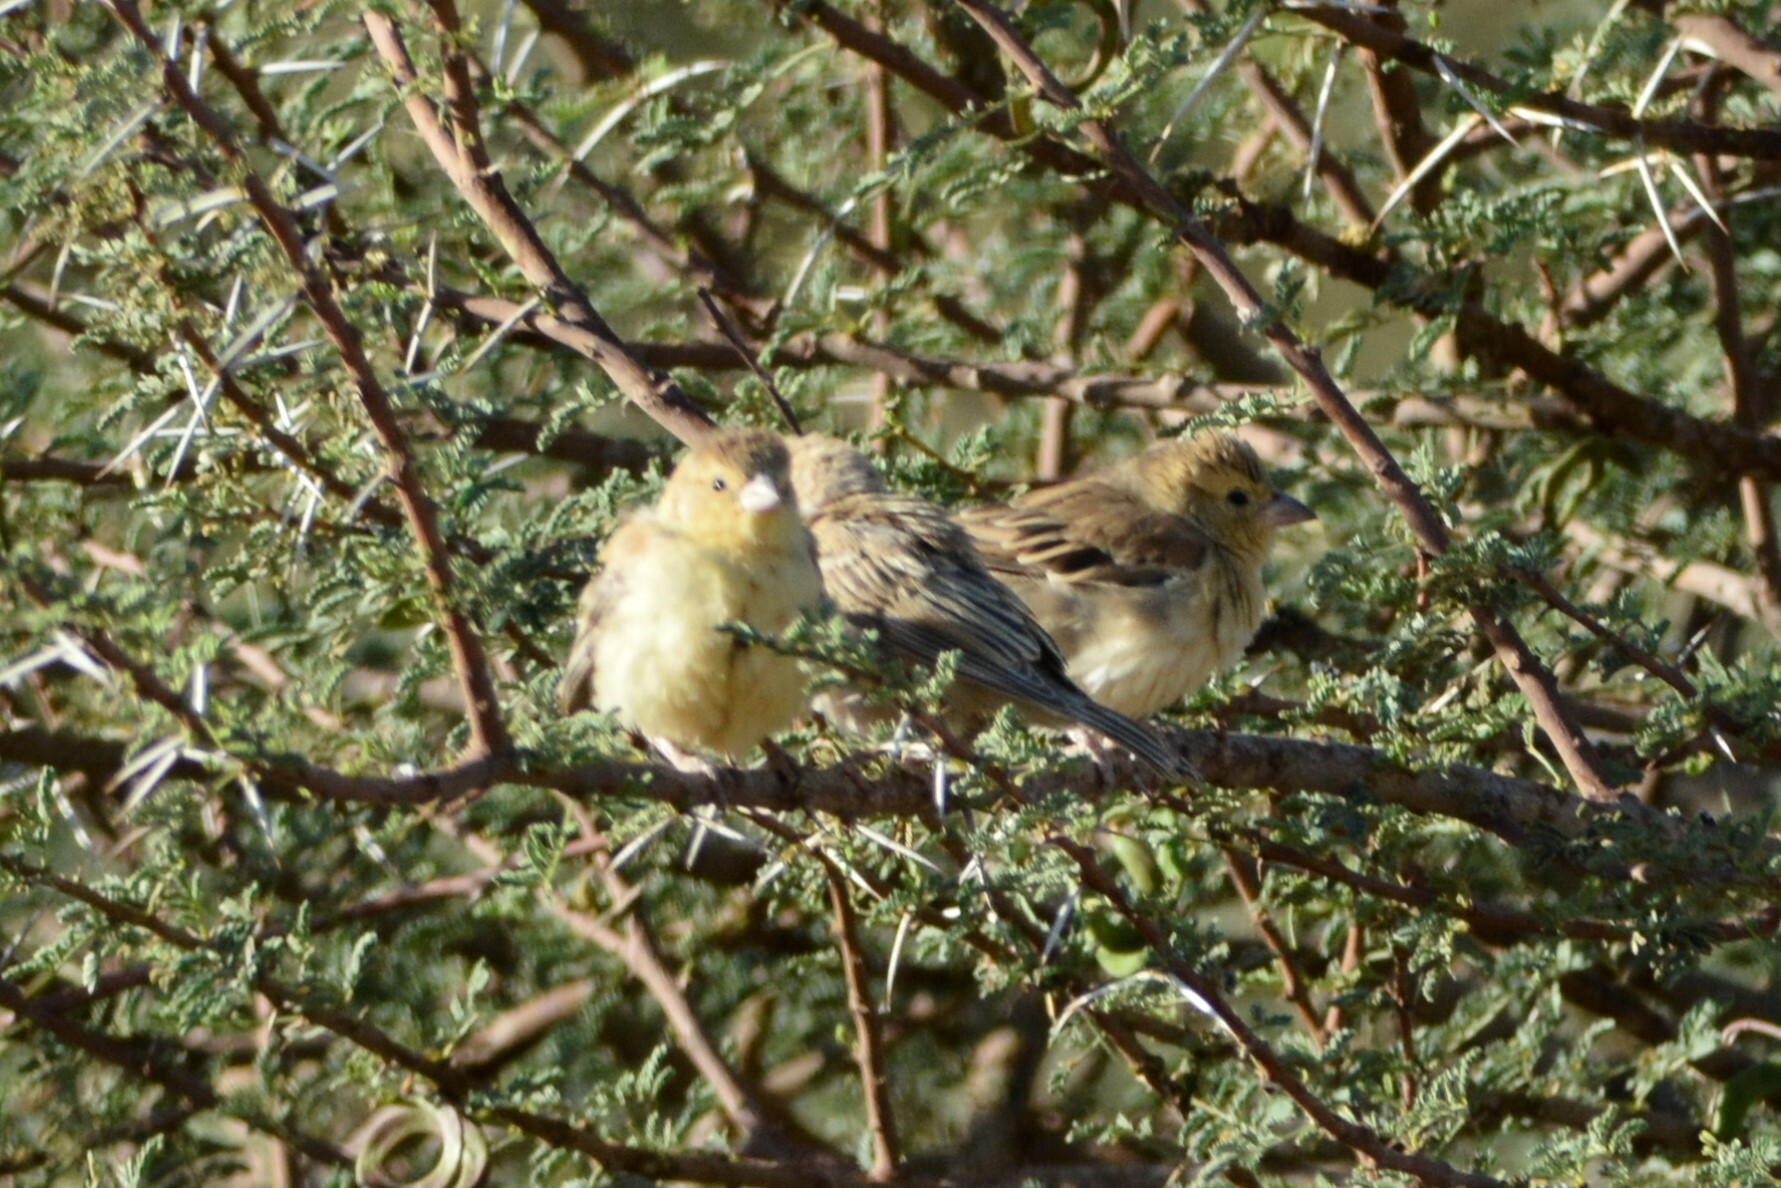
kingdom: Animalia
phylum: Chordata
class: Aves
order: Passeriformes
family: Passeridae
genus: Passer
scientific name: Passer luteus
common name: Sudan golden sparrow
